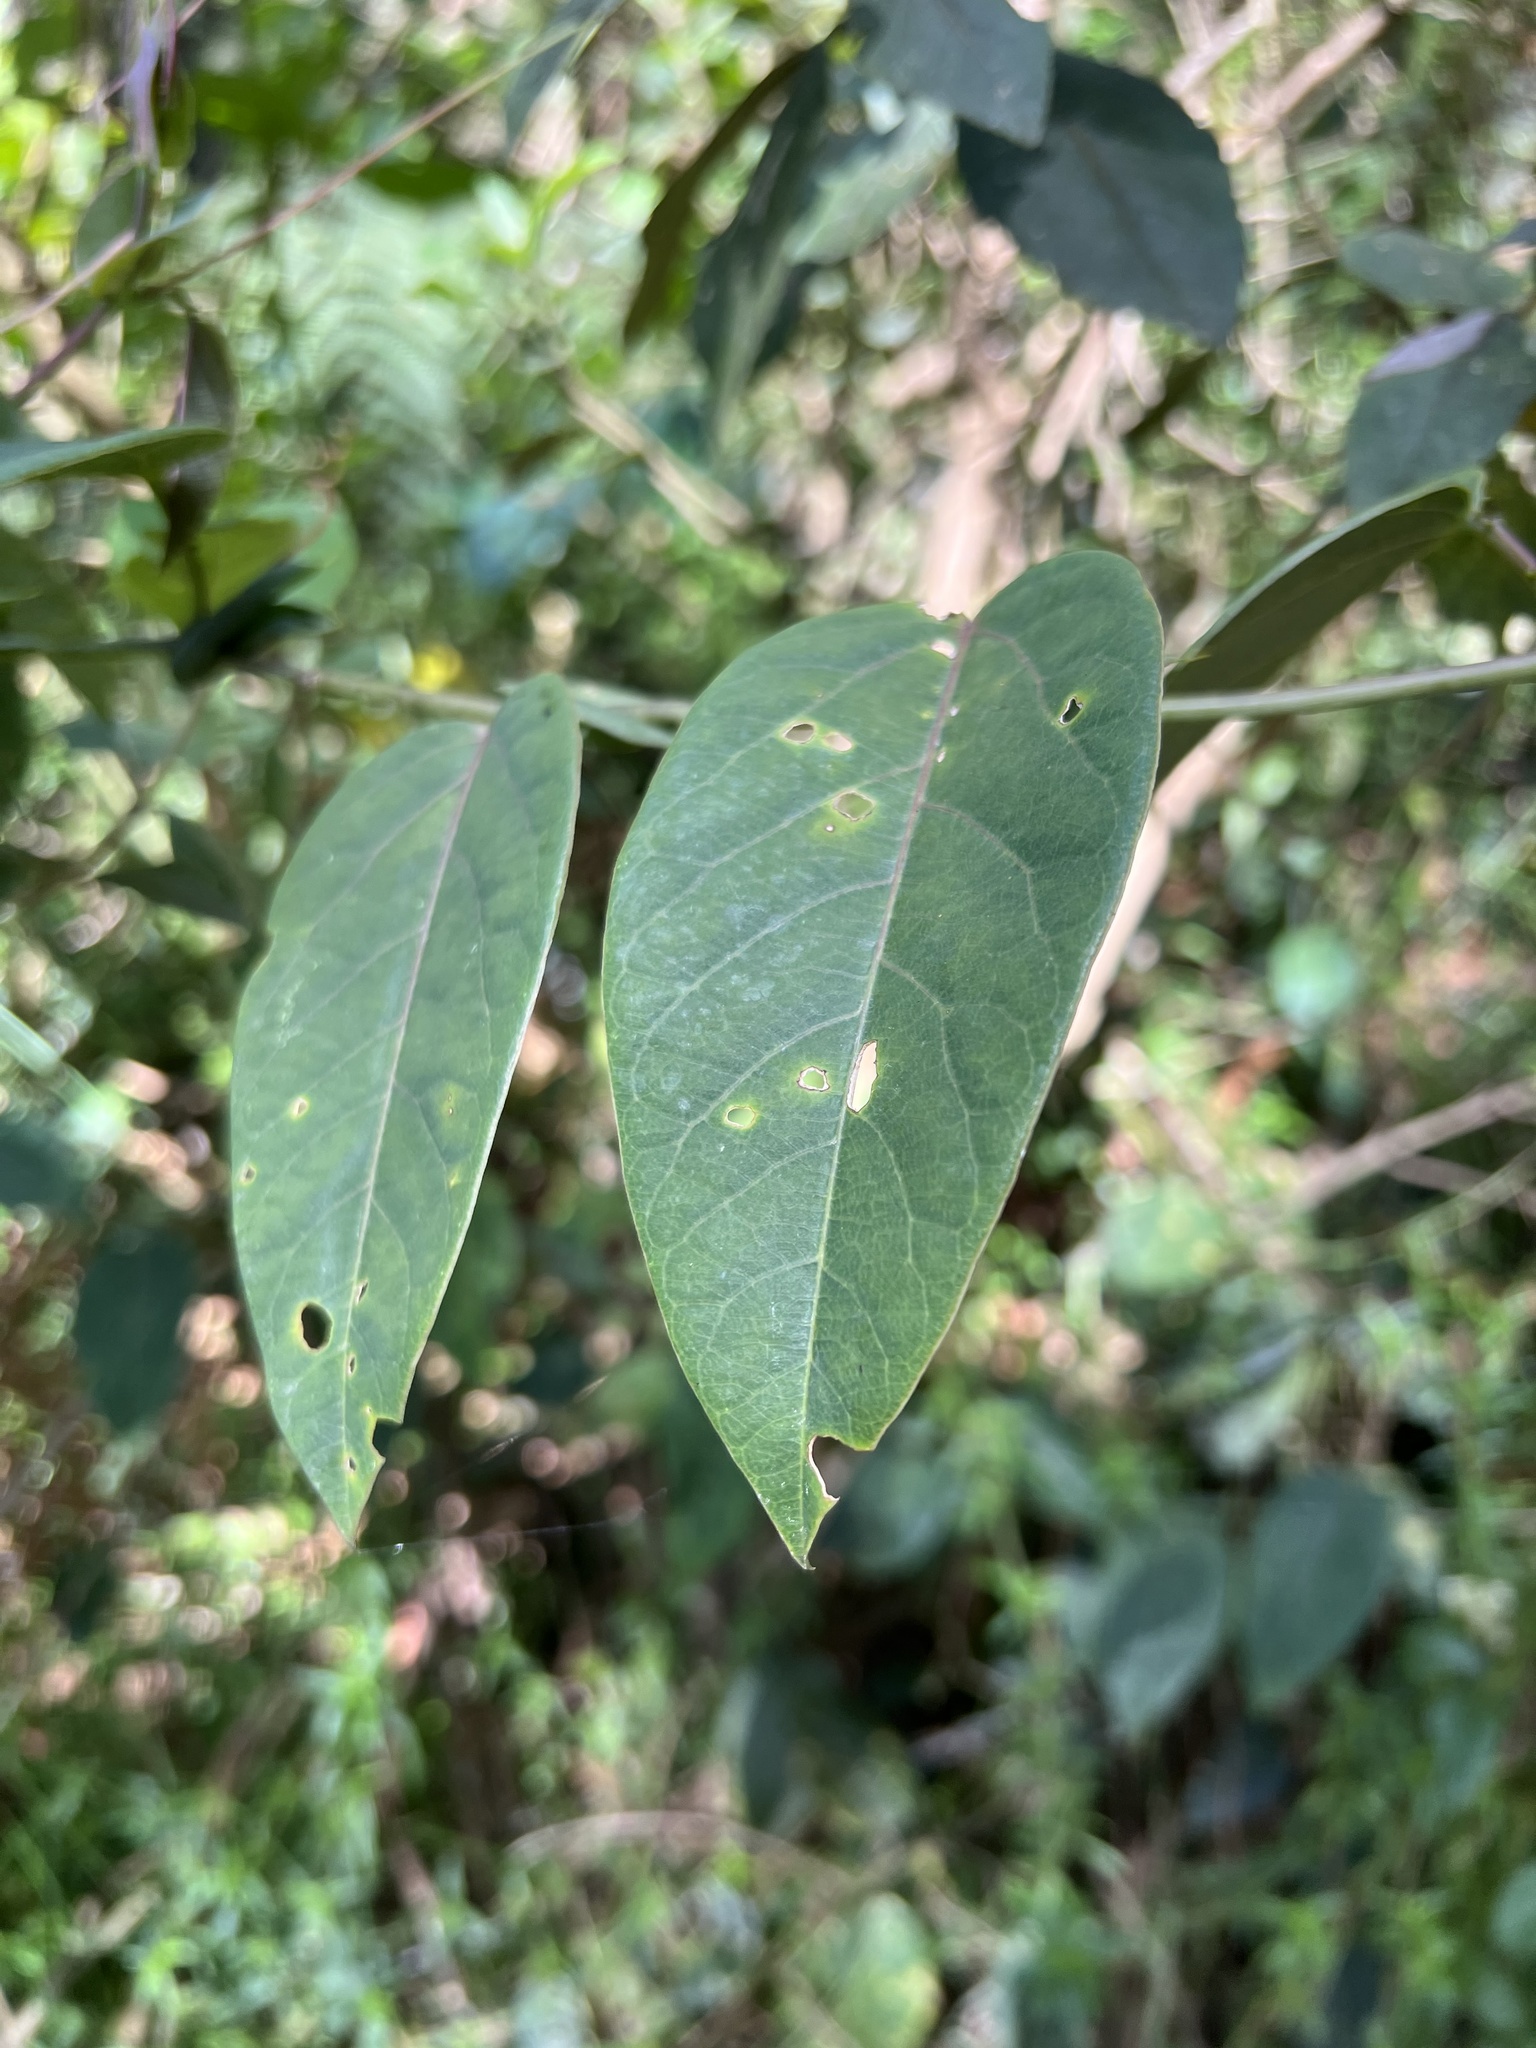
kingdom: Plantae
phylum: Tracheophyta
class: Magnoliopsida
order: Malpighiales
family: Passifloraceae
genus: Passiflora
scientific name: Passiflora longipes
